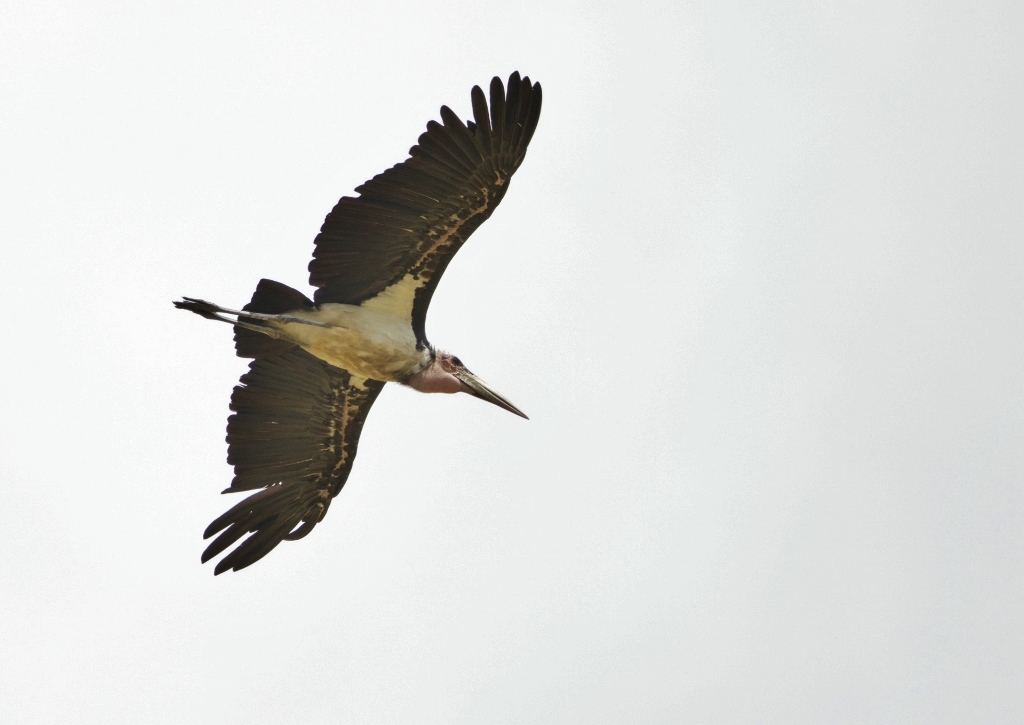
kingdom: Animalia
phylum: Chordata
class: Aves
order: Ciconiiformes
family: Ciconiidae
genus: Leptoptilos
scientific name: Leptoptilos crumenifer
